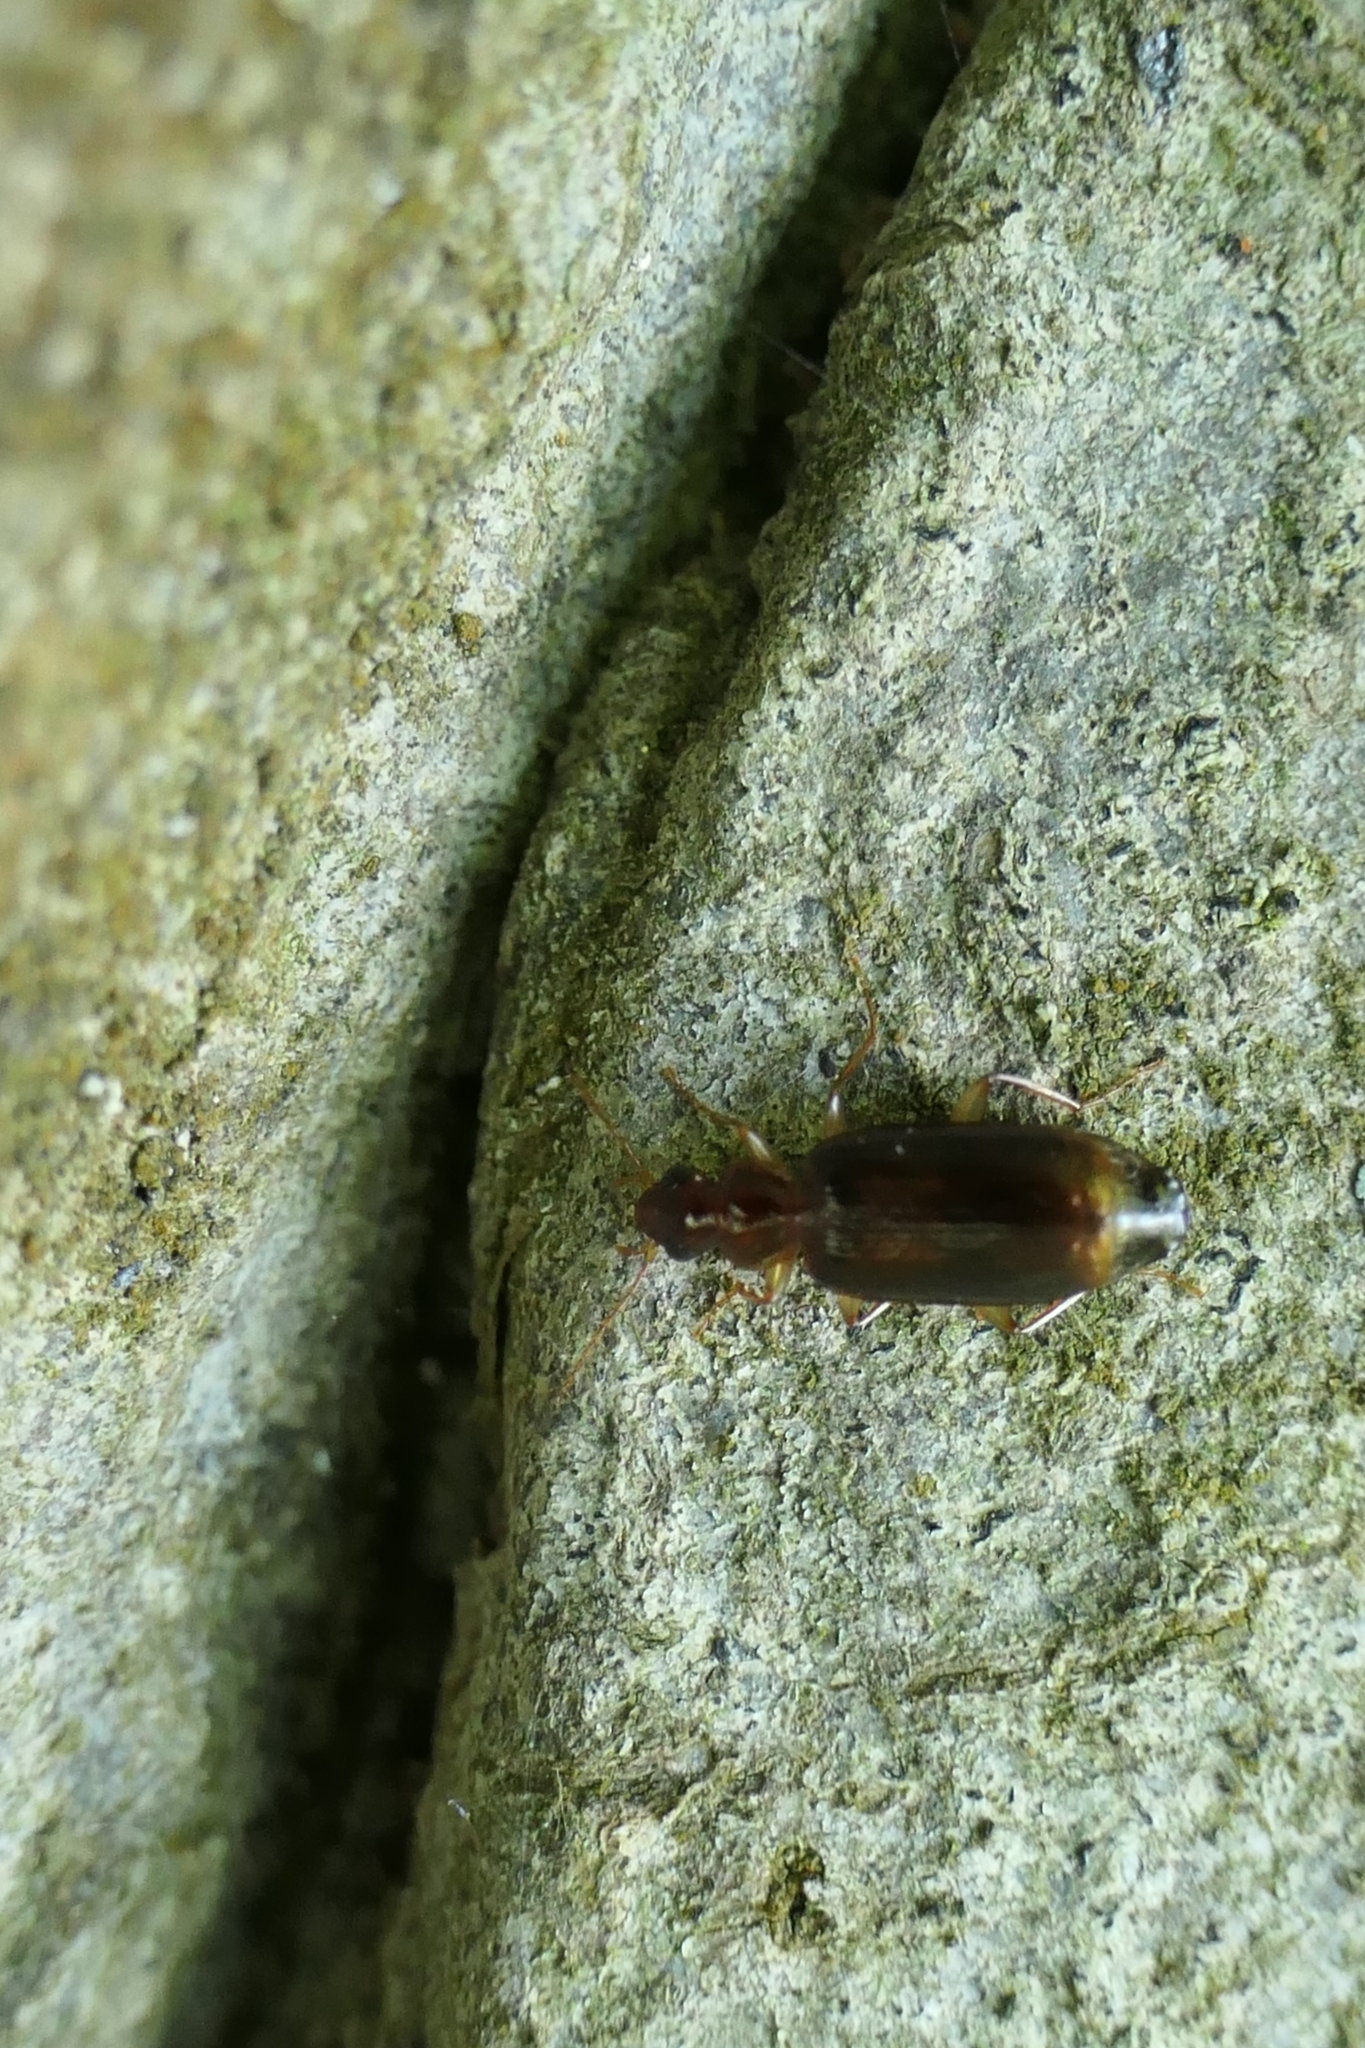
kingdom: Animalia
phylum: Arthropoda
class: Insecta
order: Coleoptera
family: Carabidae
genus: Dromius
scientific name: Dromius meridionalis
